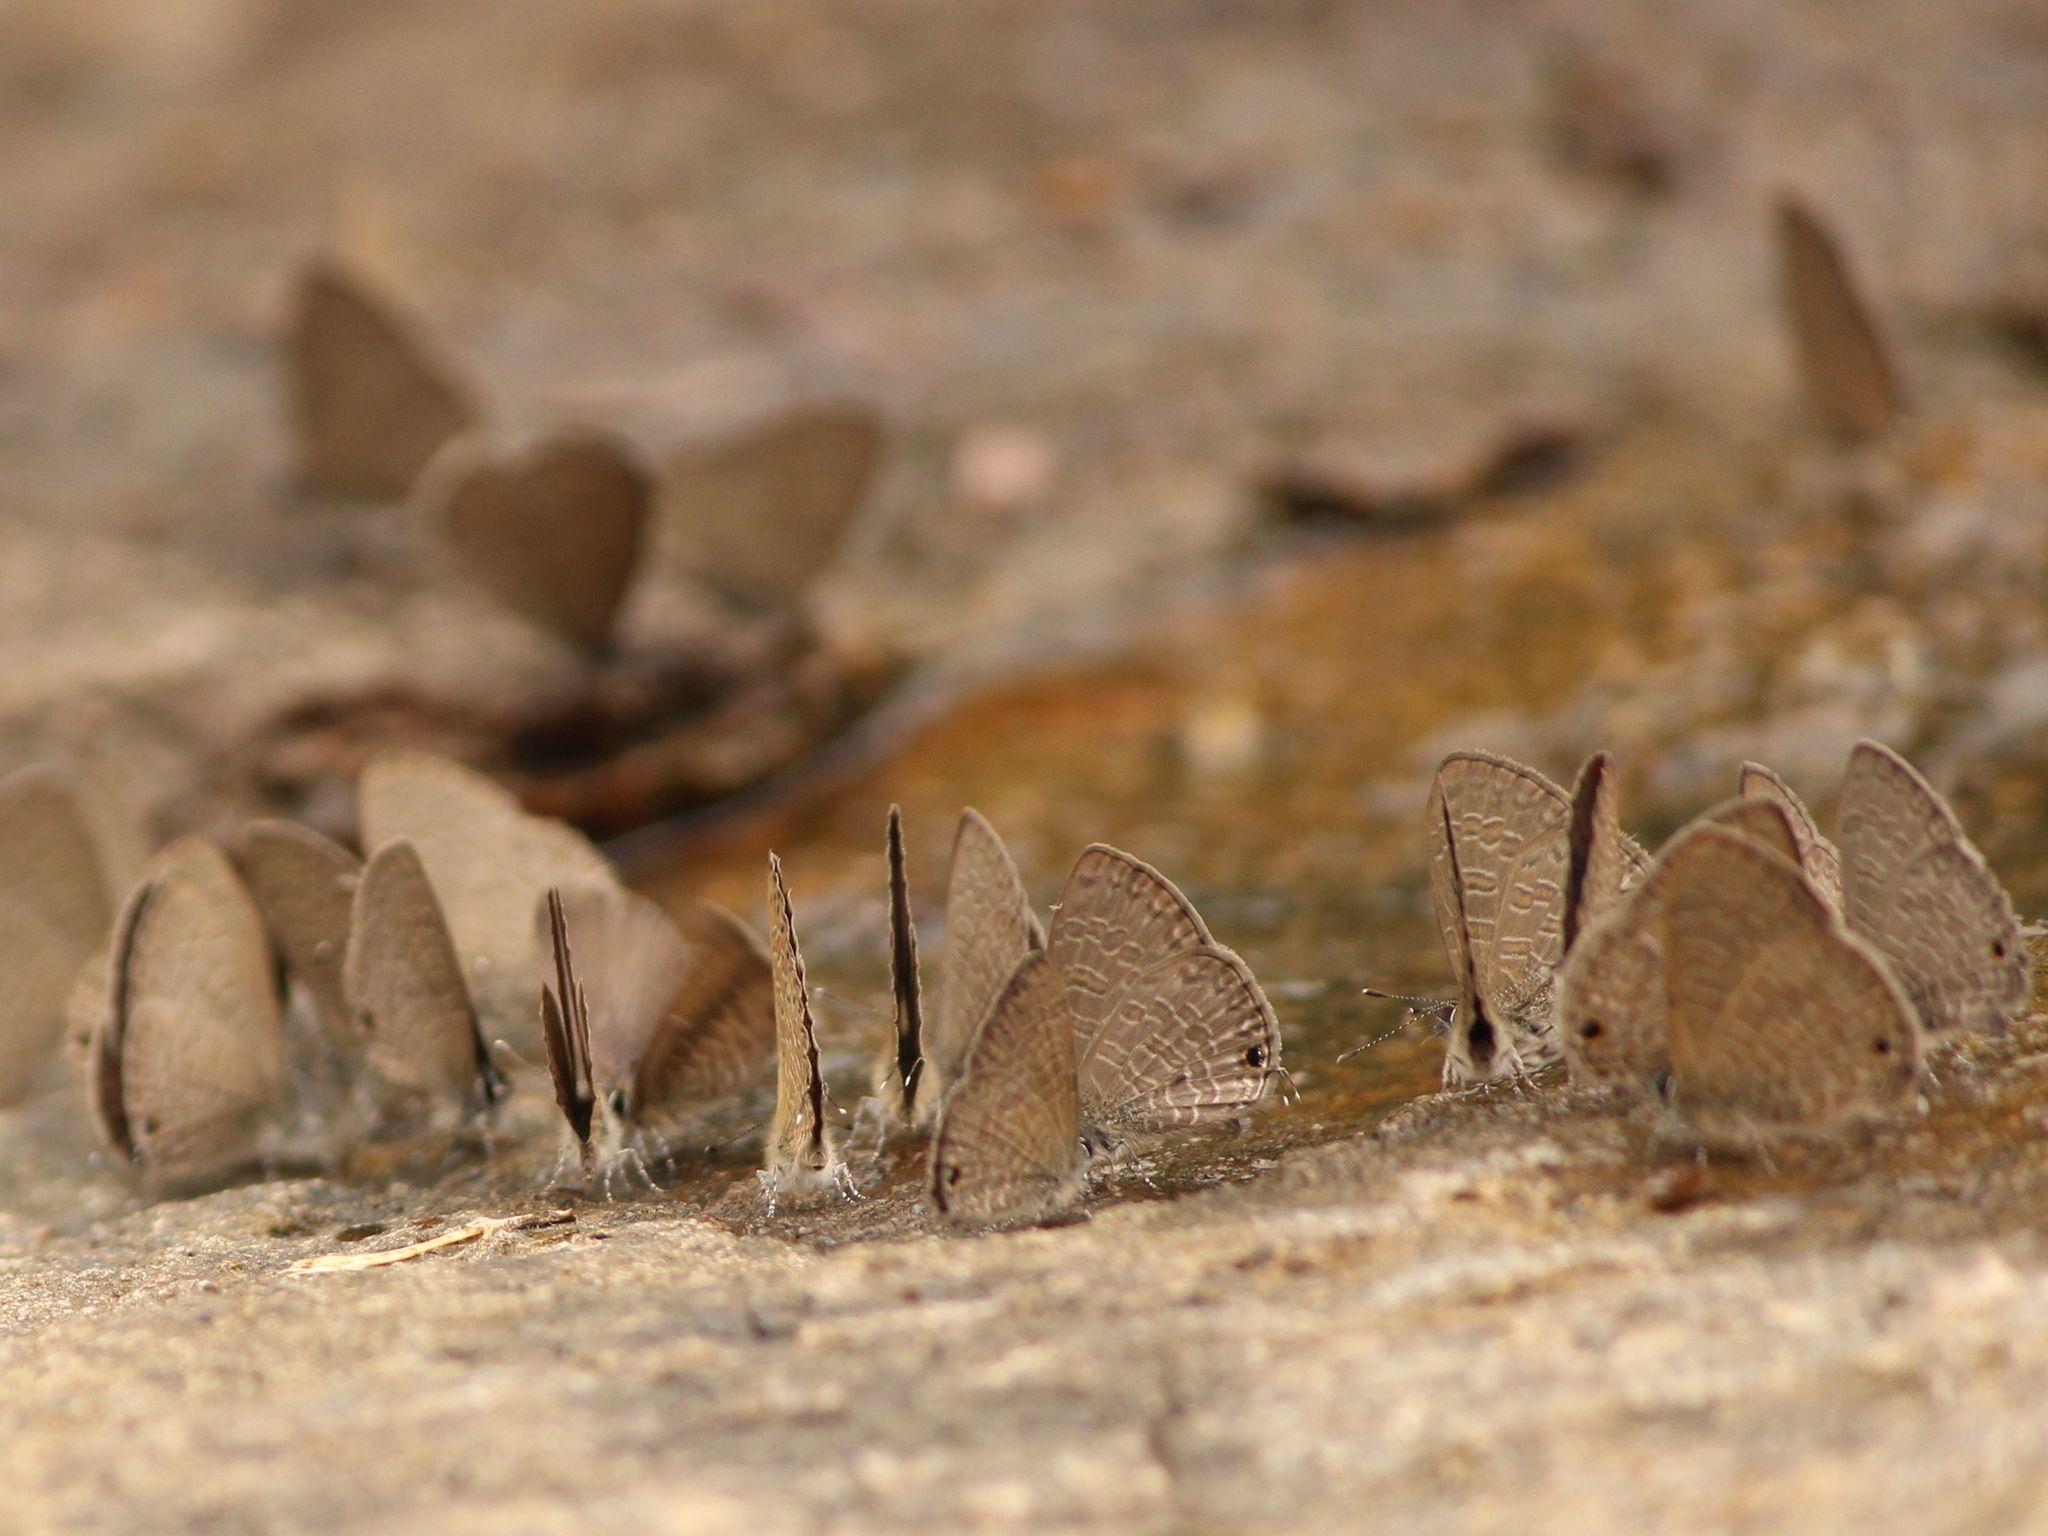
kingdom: Animalia
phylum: Arthropoda
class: Insecta
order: Lepidoptera
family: Lycaenidae
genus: Prosotas
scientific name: Prosotas nora
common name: Common line blue
